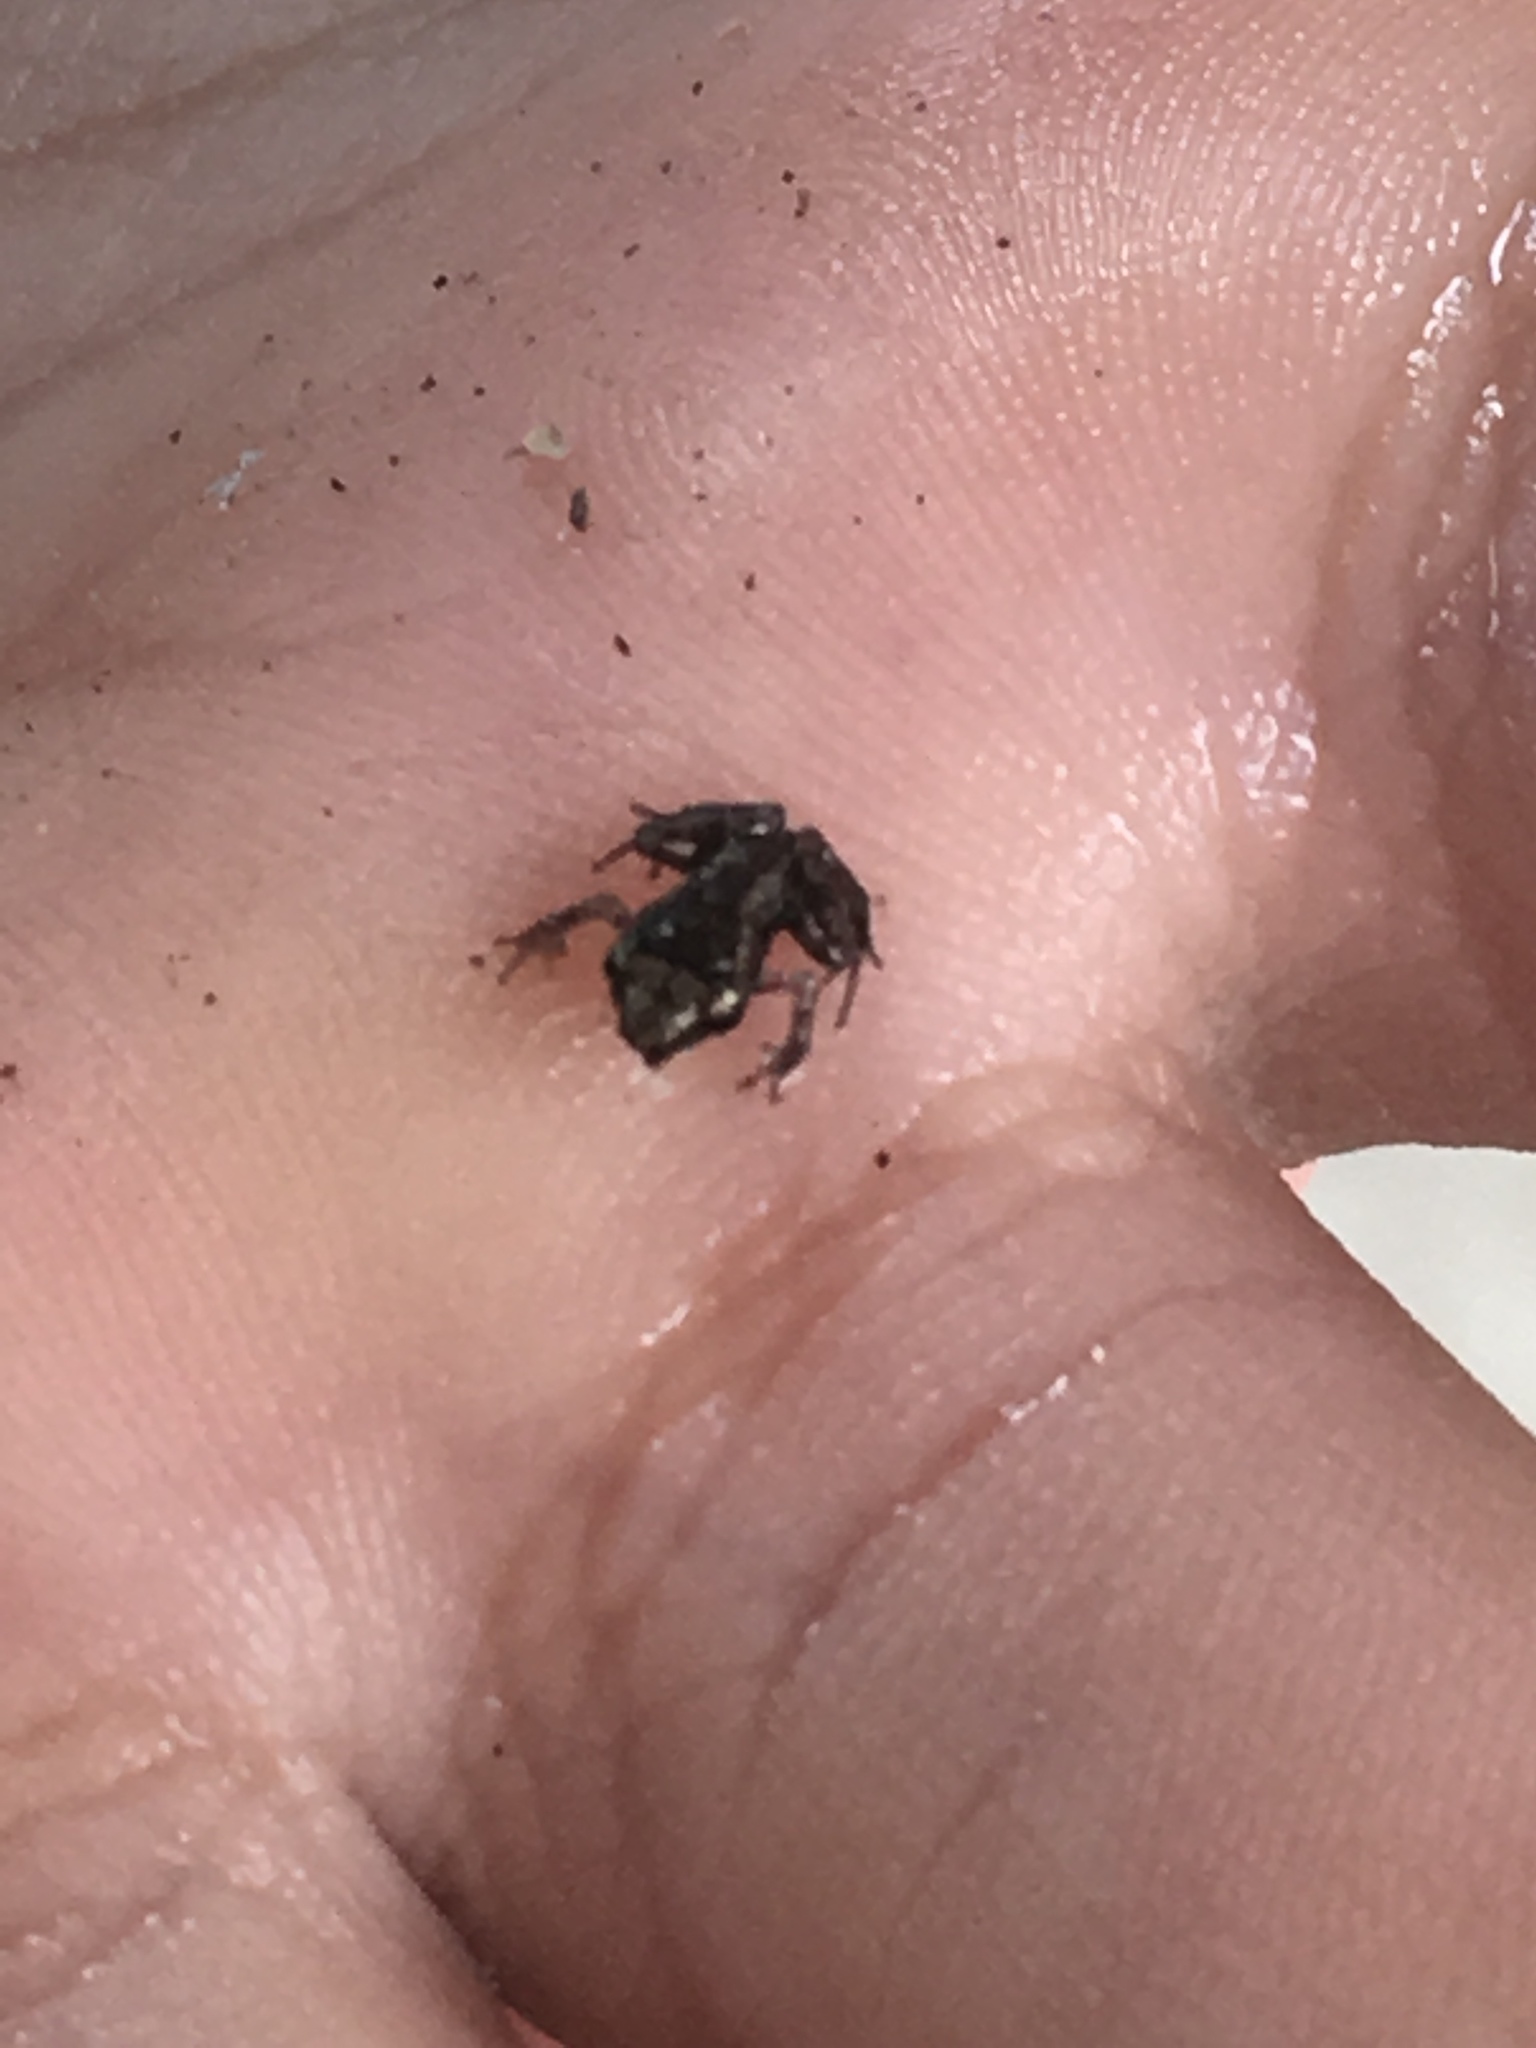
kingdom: Animalia
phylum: Chordata
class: Amphibia
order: Anura
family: Eleutherodactylidae
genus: Eleutherodactylus
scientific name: Eleutherodactylus planirostris
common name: Greenhouse frog
